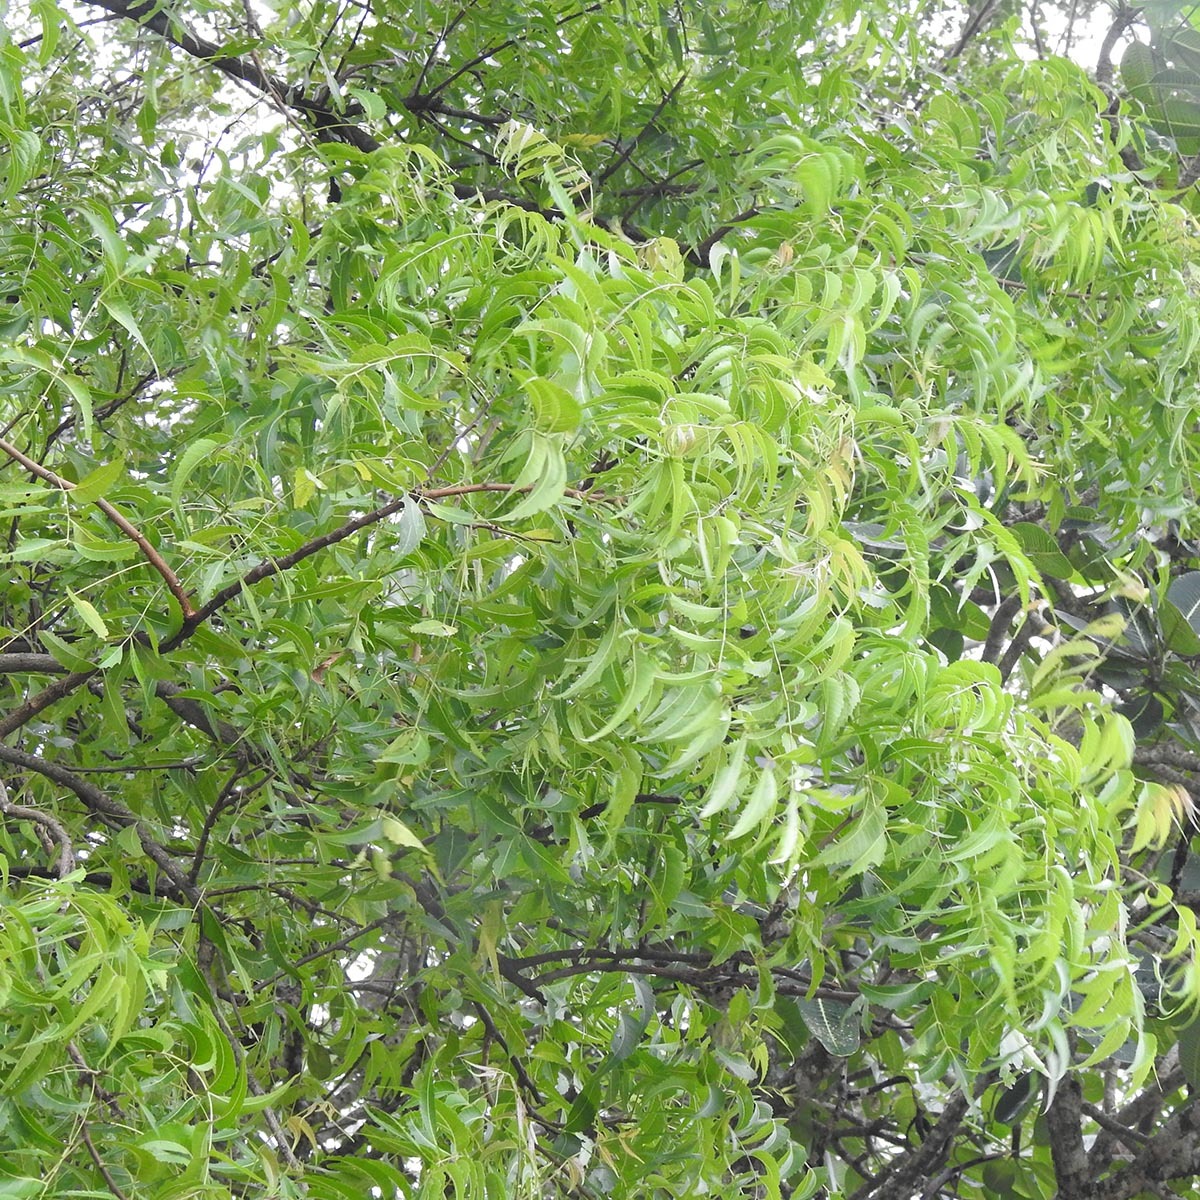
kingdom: Plantae
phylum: Tracheophyta
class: Magnoliopsida
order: Sapindales
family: Meliaceae
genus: Azadirachta
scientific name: Azadirachta indica
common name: Neem
